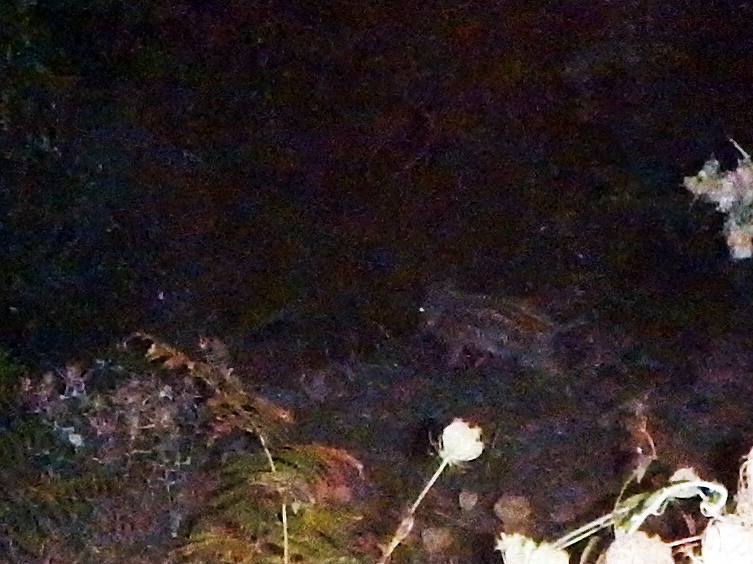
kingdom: Animalia
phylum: Chordata
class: Mammalia
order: Artiodactyla
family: Suidae
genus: Sus
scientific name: Sus scrofa
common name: Wild boar
